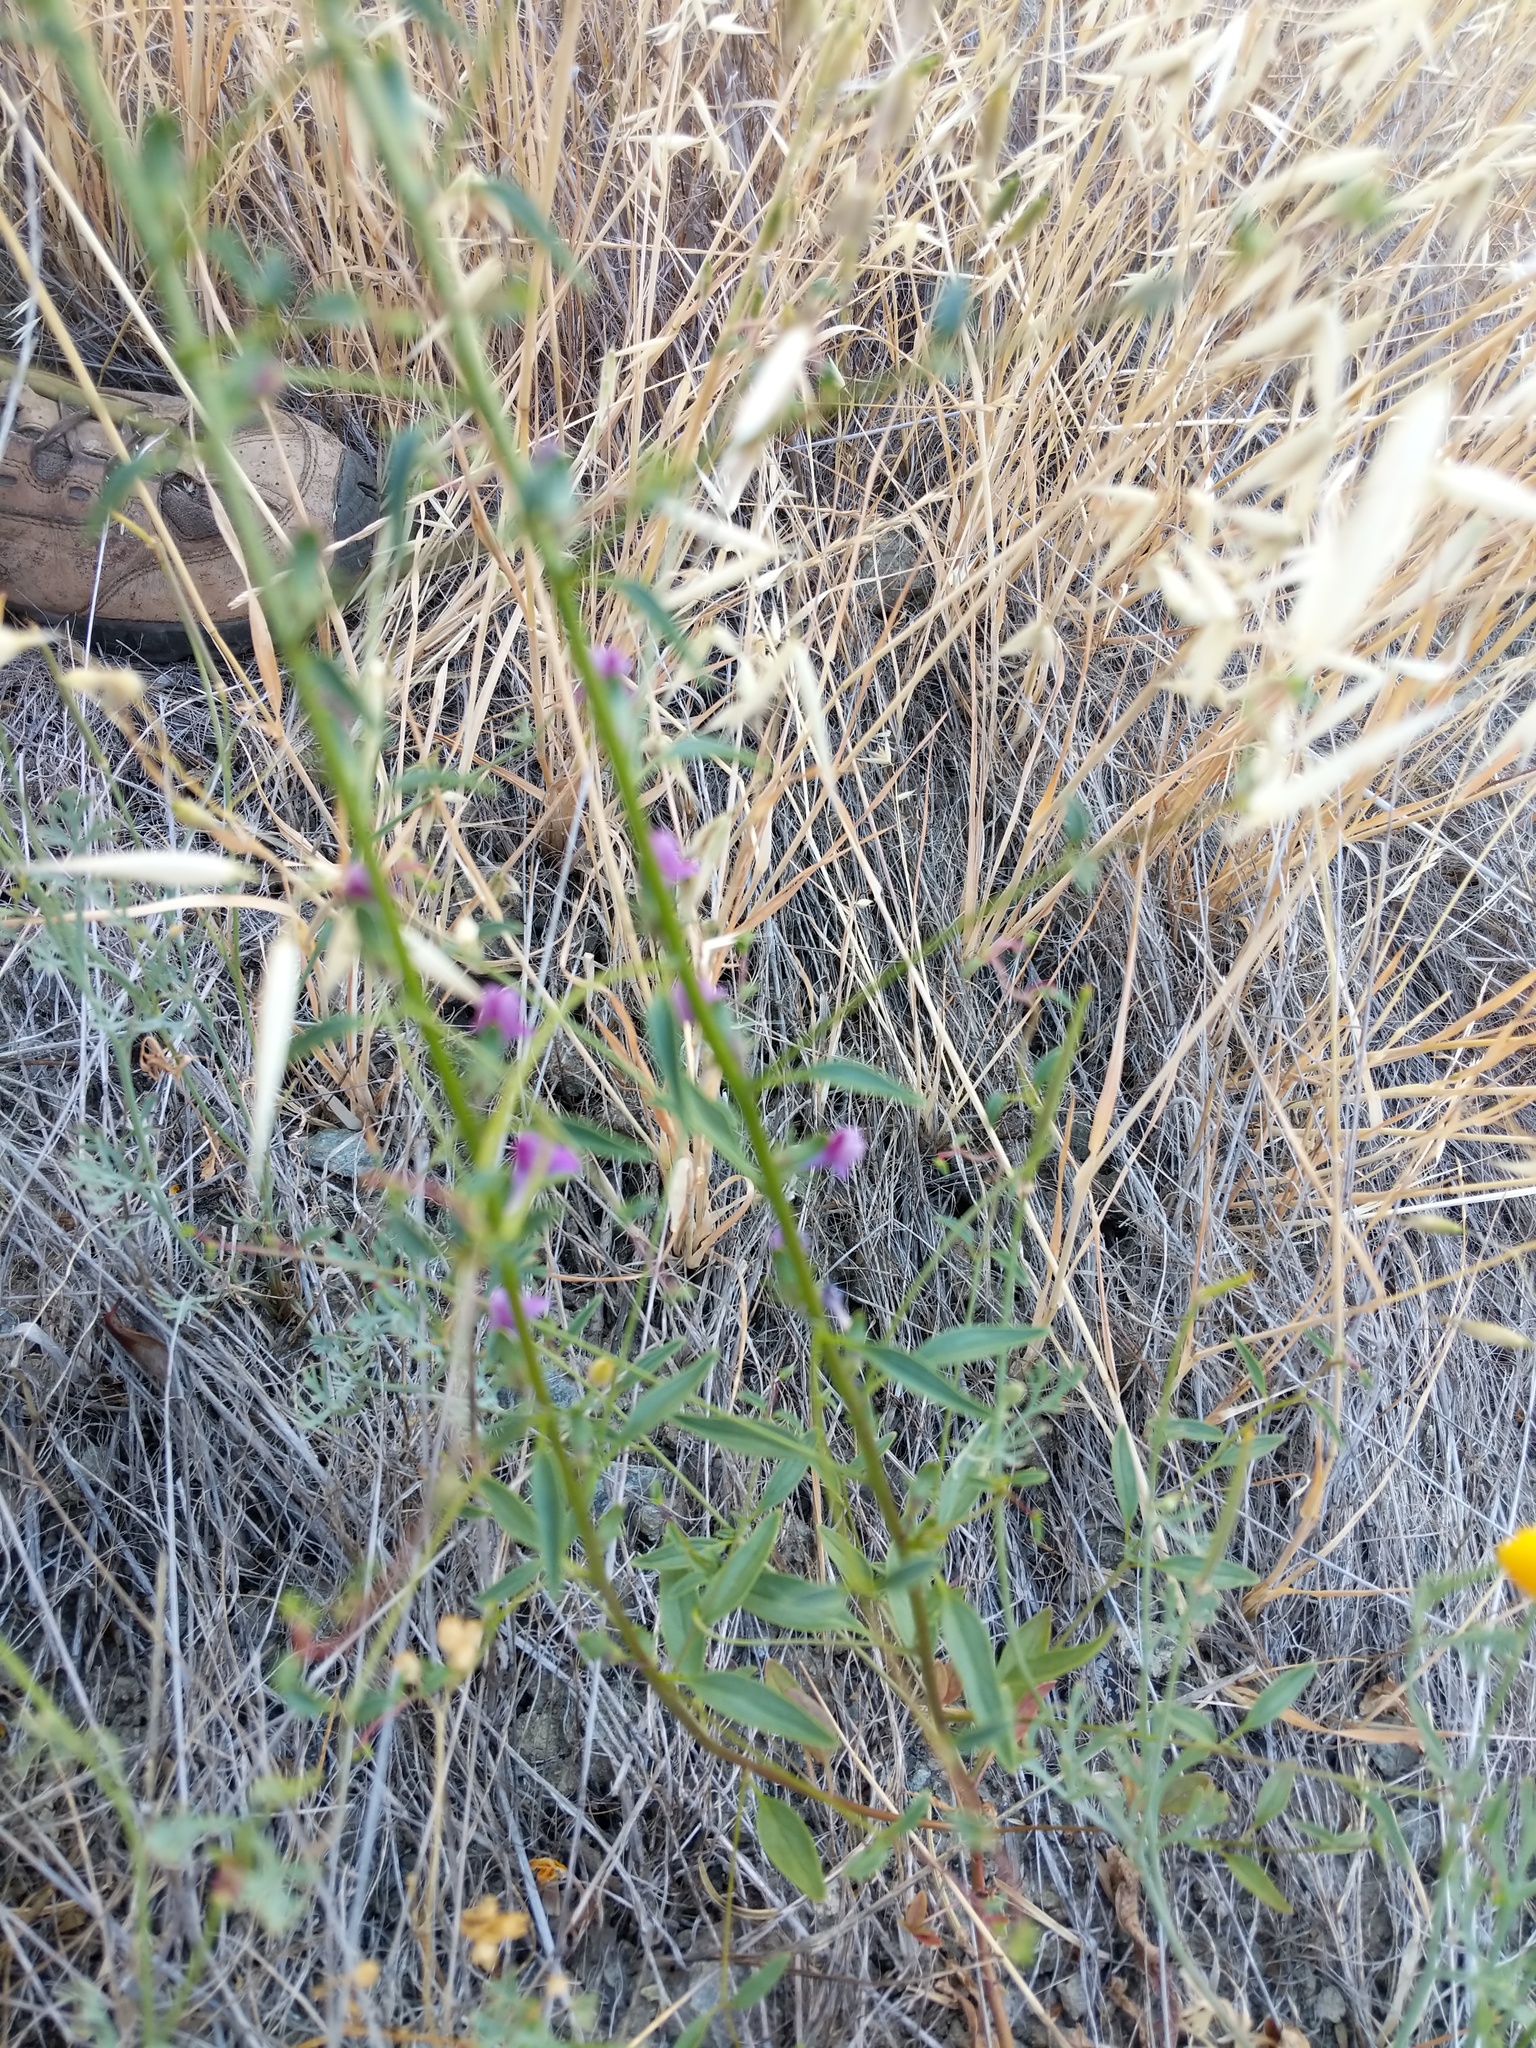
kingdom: Plantae
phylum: Tracheophyta
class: Magnoliopsida
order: Lamiales
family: Plantaginaceae
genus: Sairocarpus
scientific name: Sairocarpus vexillocalyculatus
